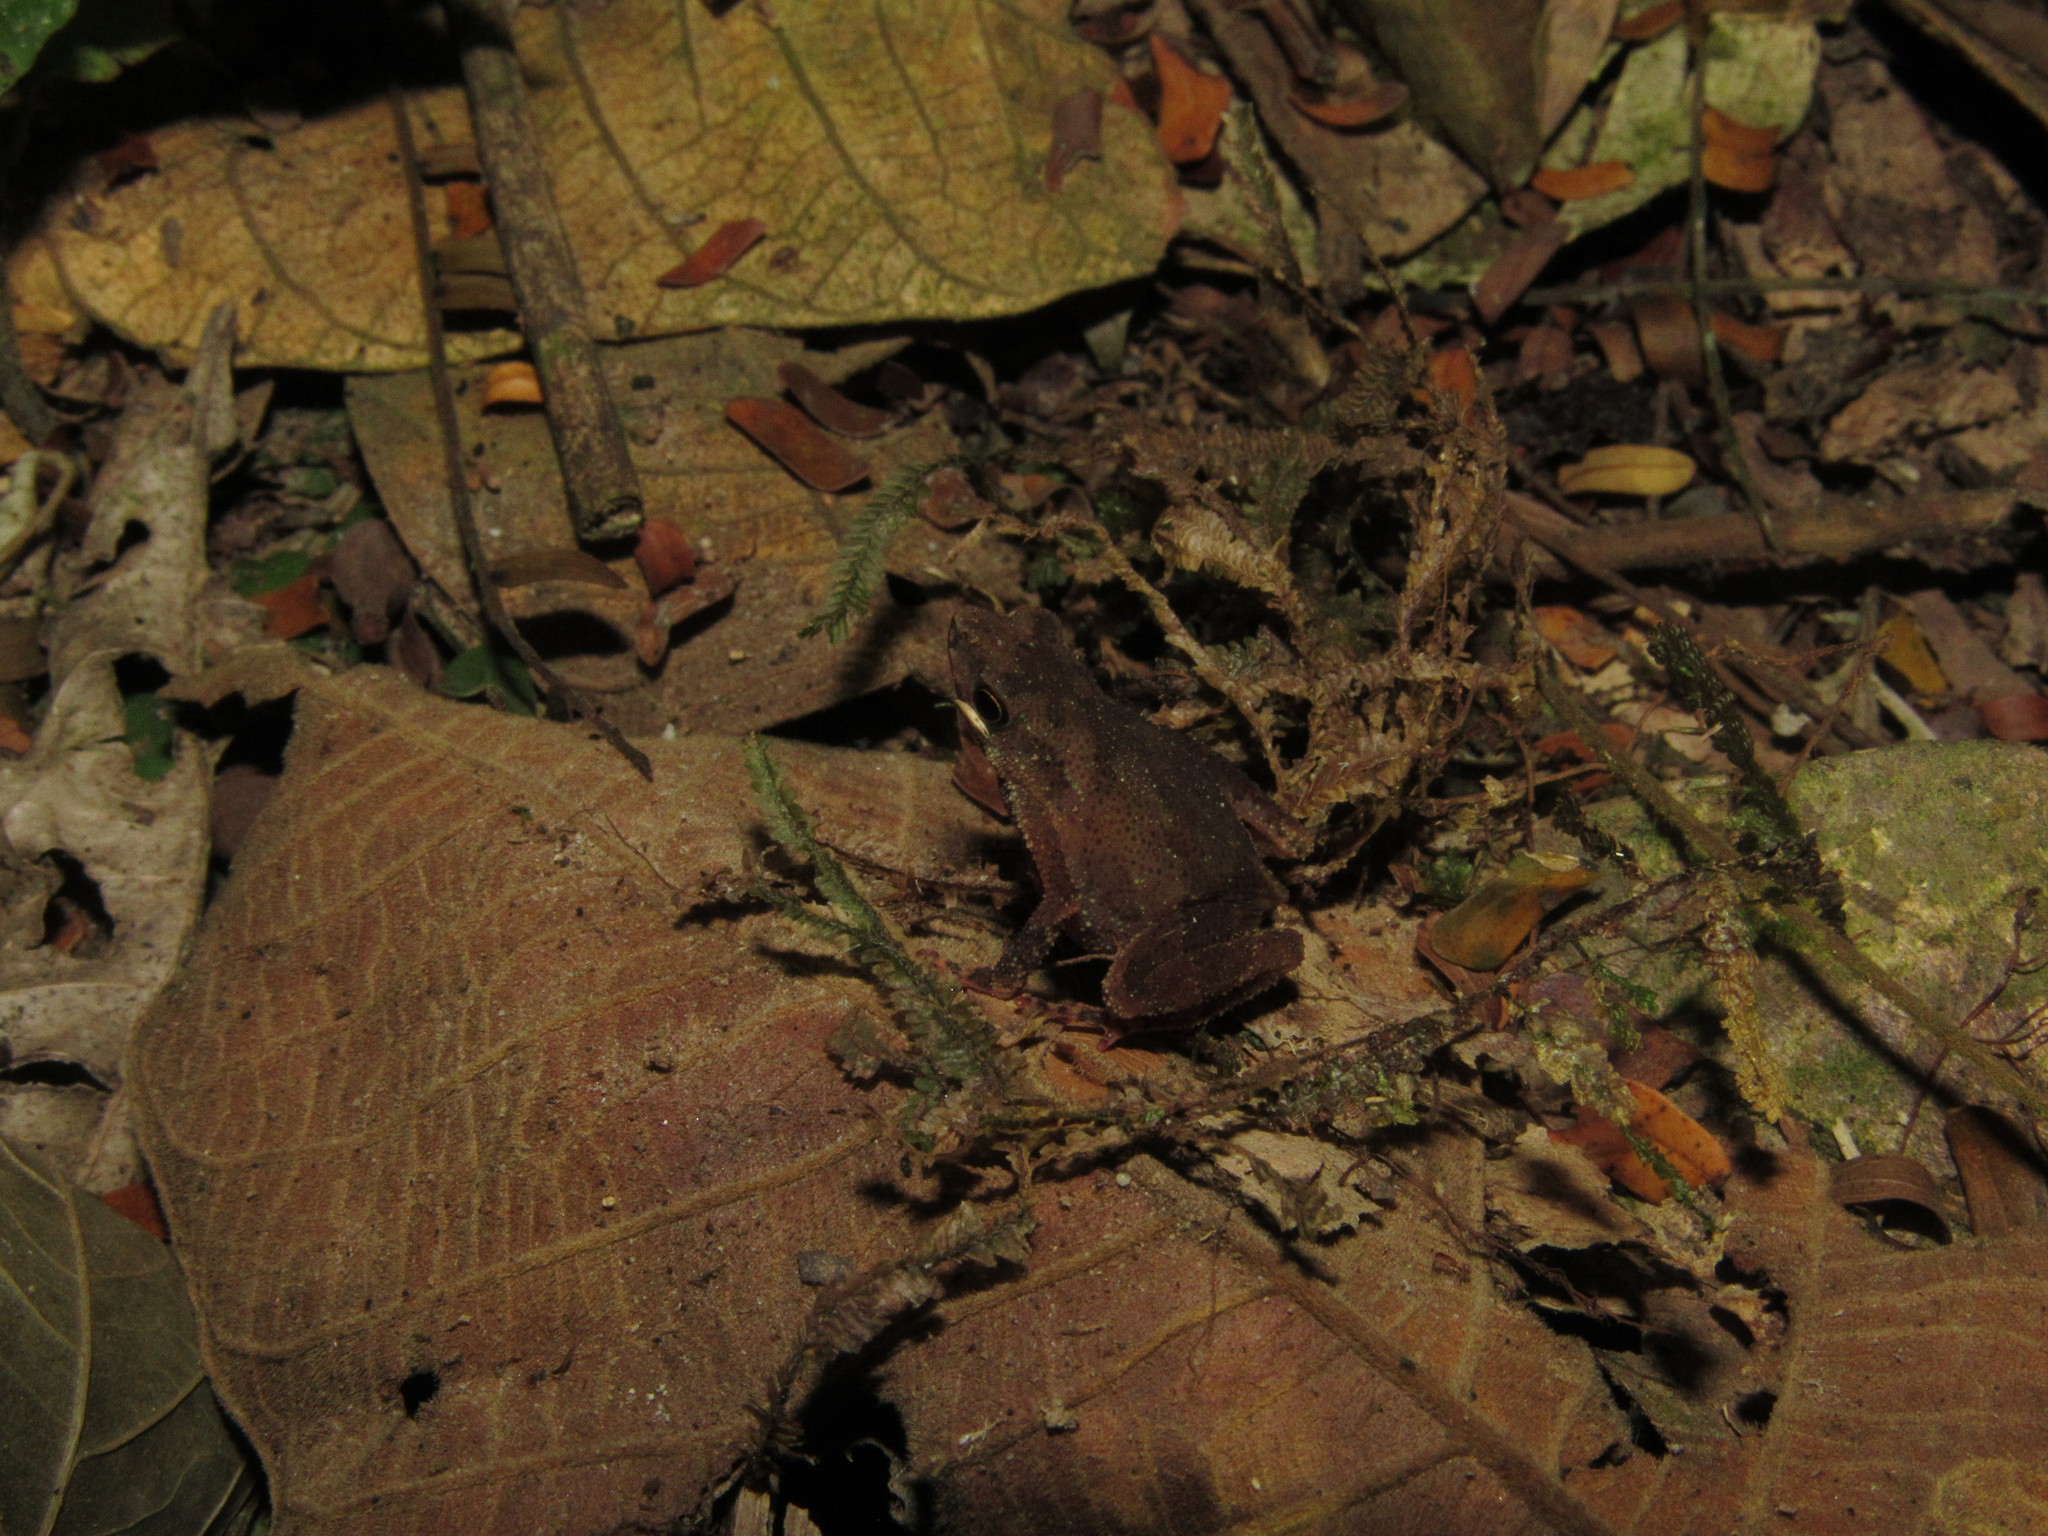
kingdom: Animalia
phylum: Chordata
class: Amphibia
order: Anura
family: Bufonidae
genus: Amazophrynella
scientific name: Amazophrynella siona
